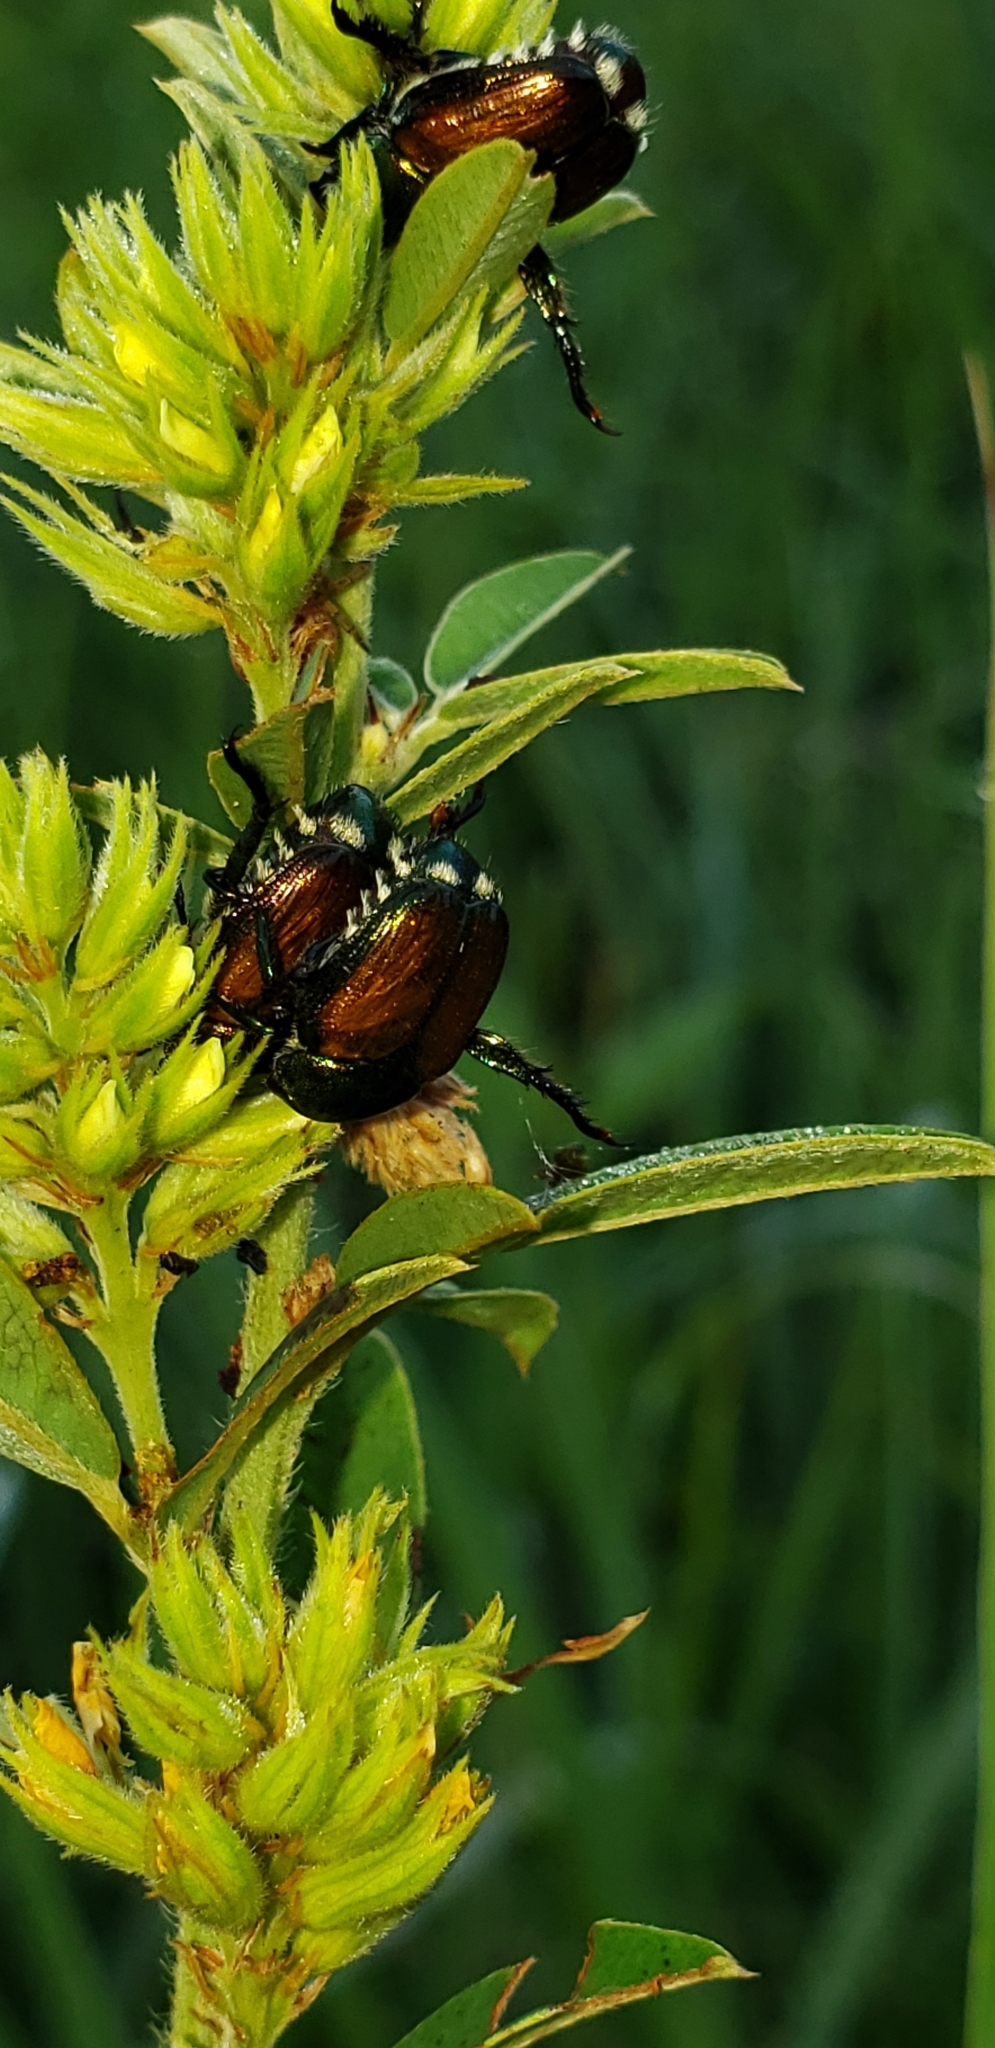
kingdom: Animalia
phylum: Arthropoda
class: Insecta
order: Coleoptera
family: Scarabaeidae
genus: Popillia
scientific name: Popillia japonica
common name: Japanese beetle
